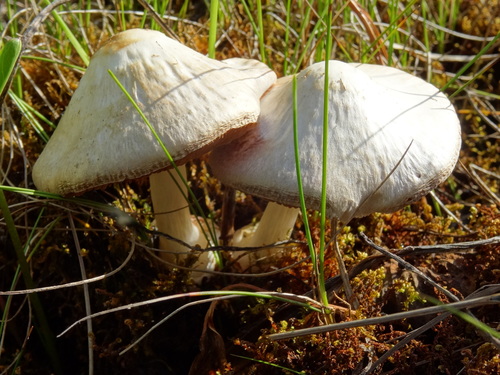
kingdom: Fungi
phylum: Basidiomycota
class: Agaricomycetes
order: Agaricales
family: Pluteaceae
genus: Volvariella
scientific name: Volvariella pusilla
